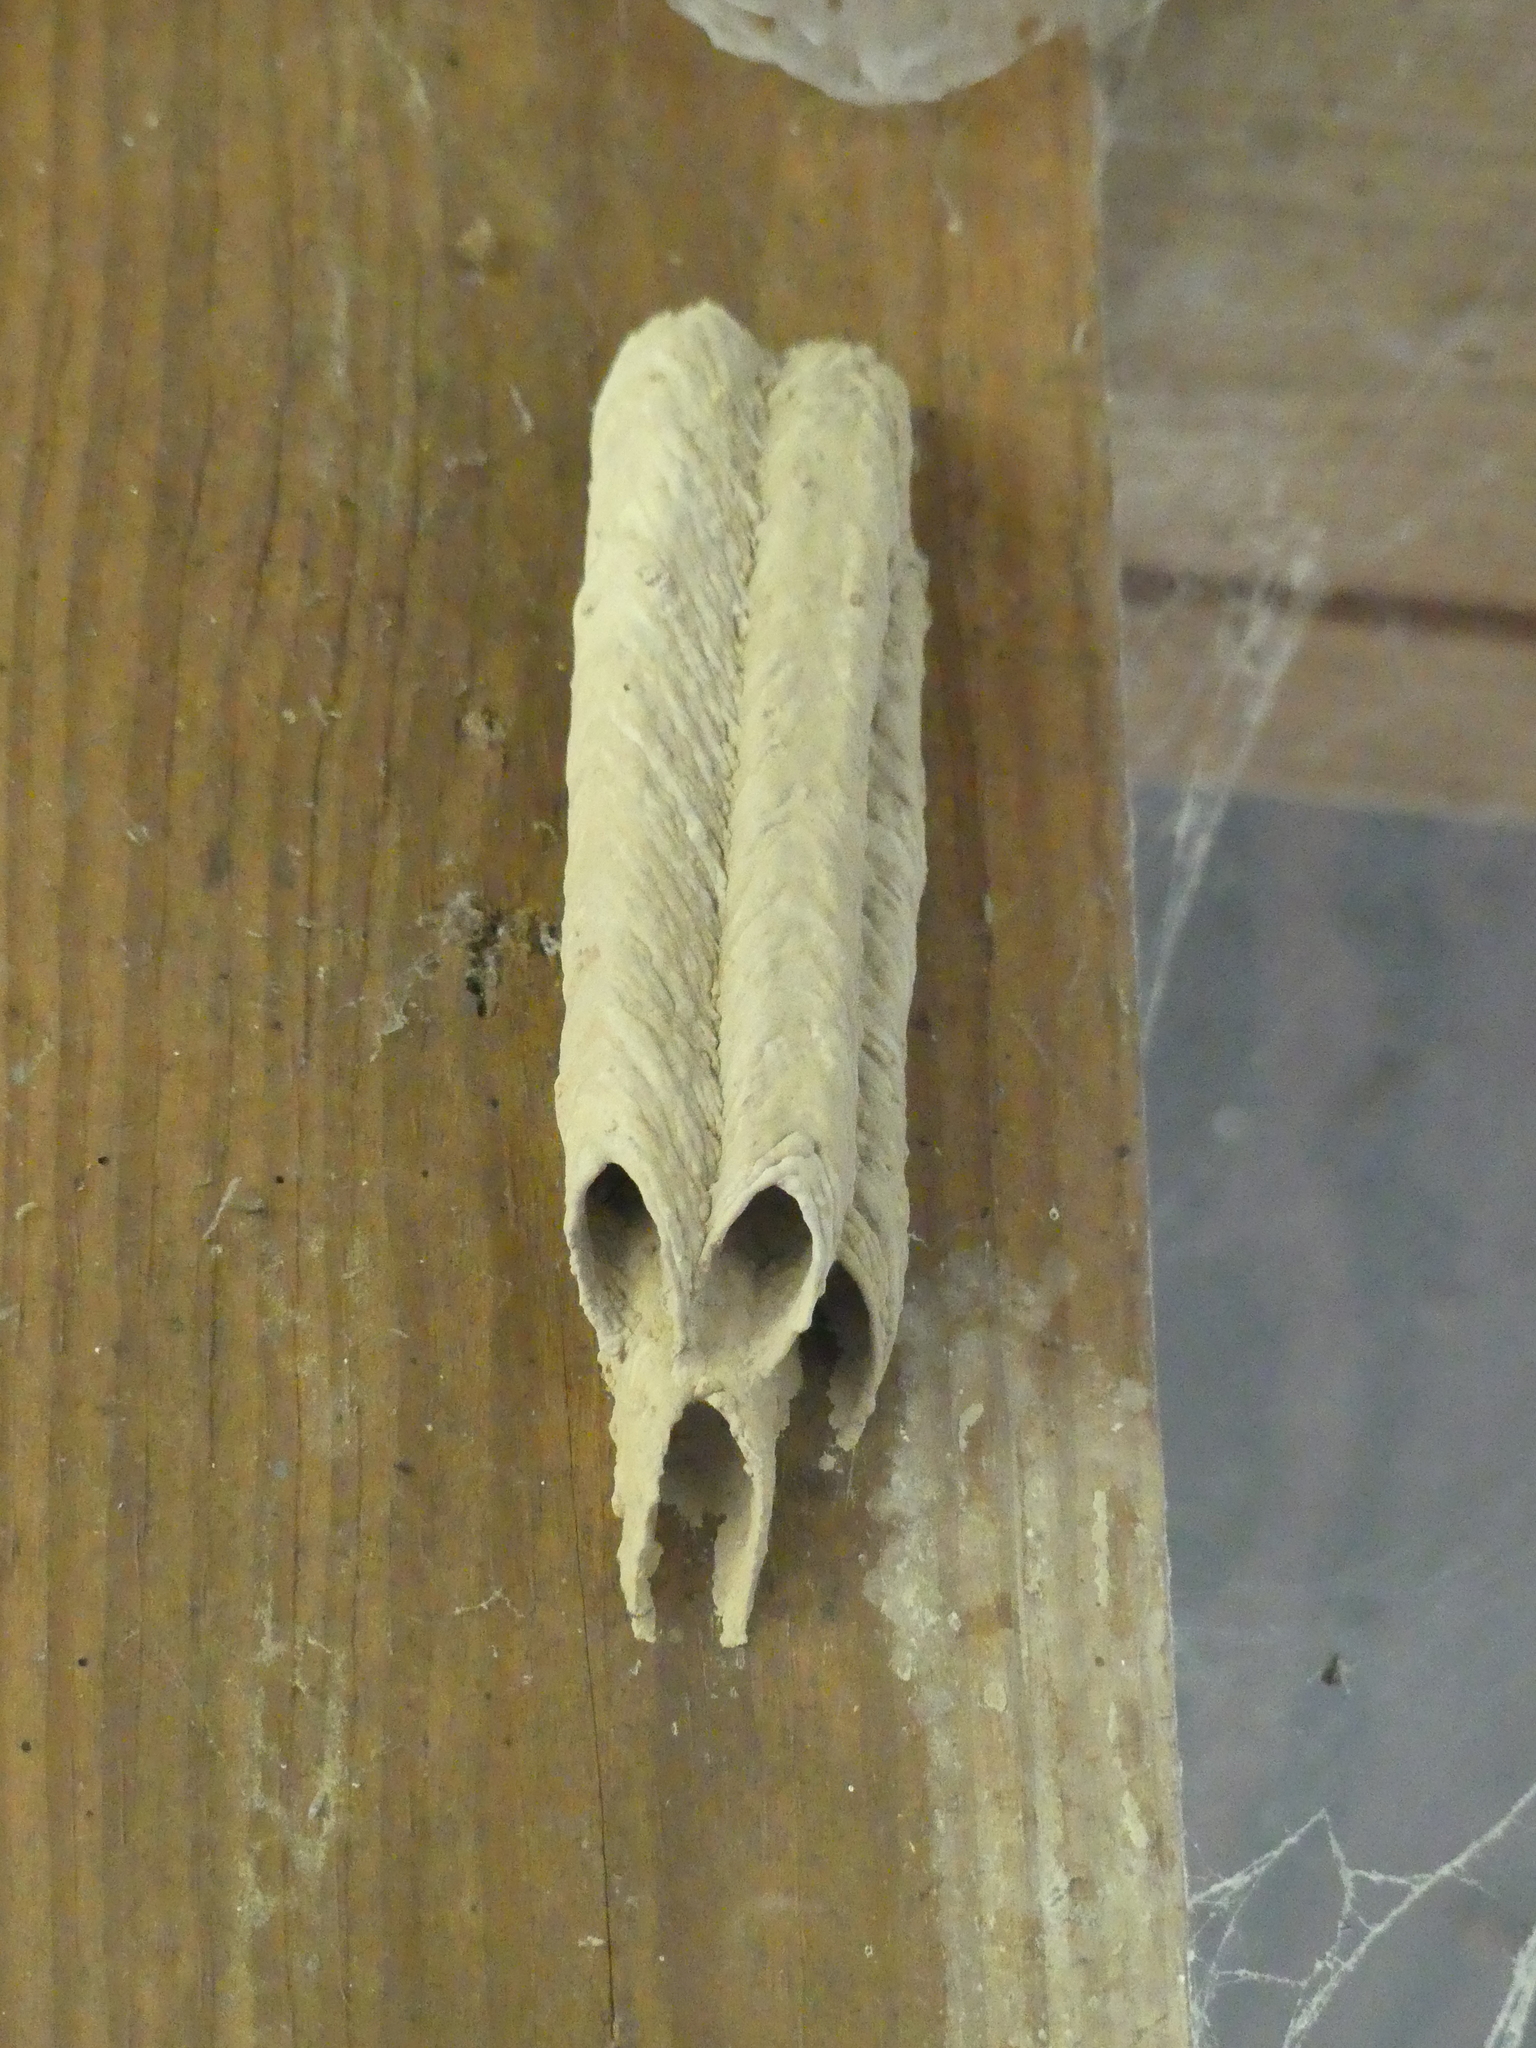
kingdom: Animalia
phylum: Arthropoda
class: Insecta
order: Hymenoptera
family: Crabronidae
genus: Trypoxylon
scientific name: Trypoxylon politum
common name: Organ-pipe mud-dauber wasp
